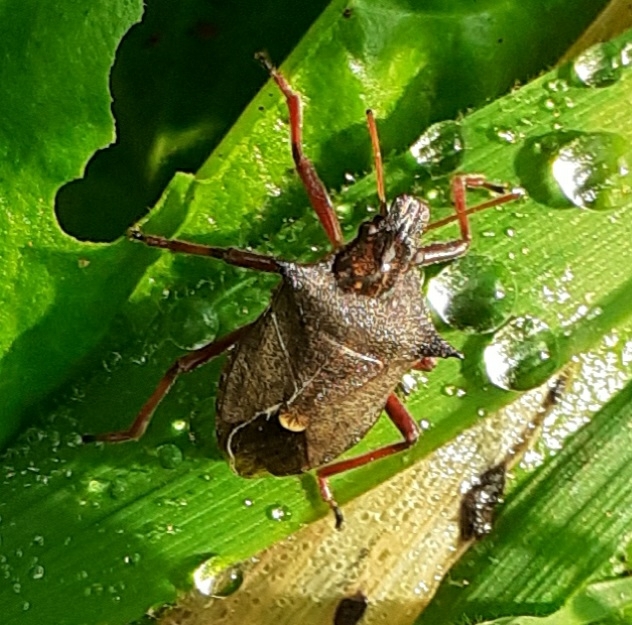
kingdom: Animalia
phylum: Arthropoda
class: Insecta
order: Hemiptera
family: Pentatomidae
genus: Picromerus
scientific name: Picromerus bidens
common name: Spiked shieldbug
